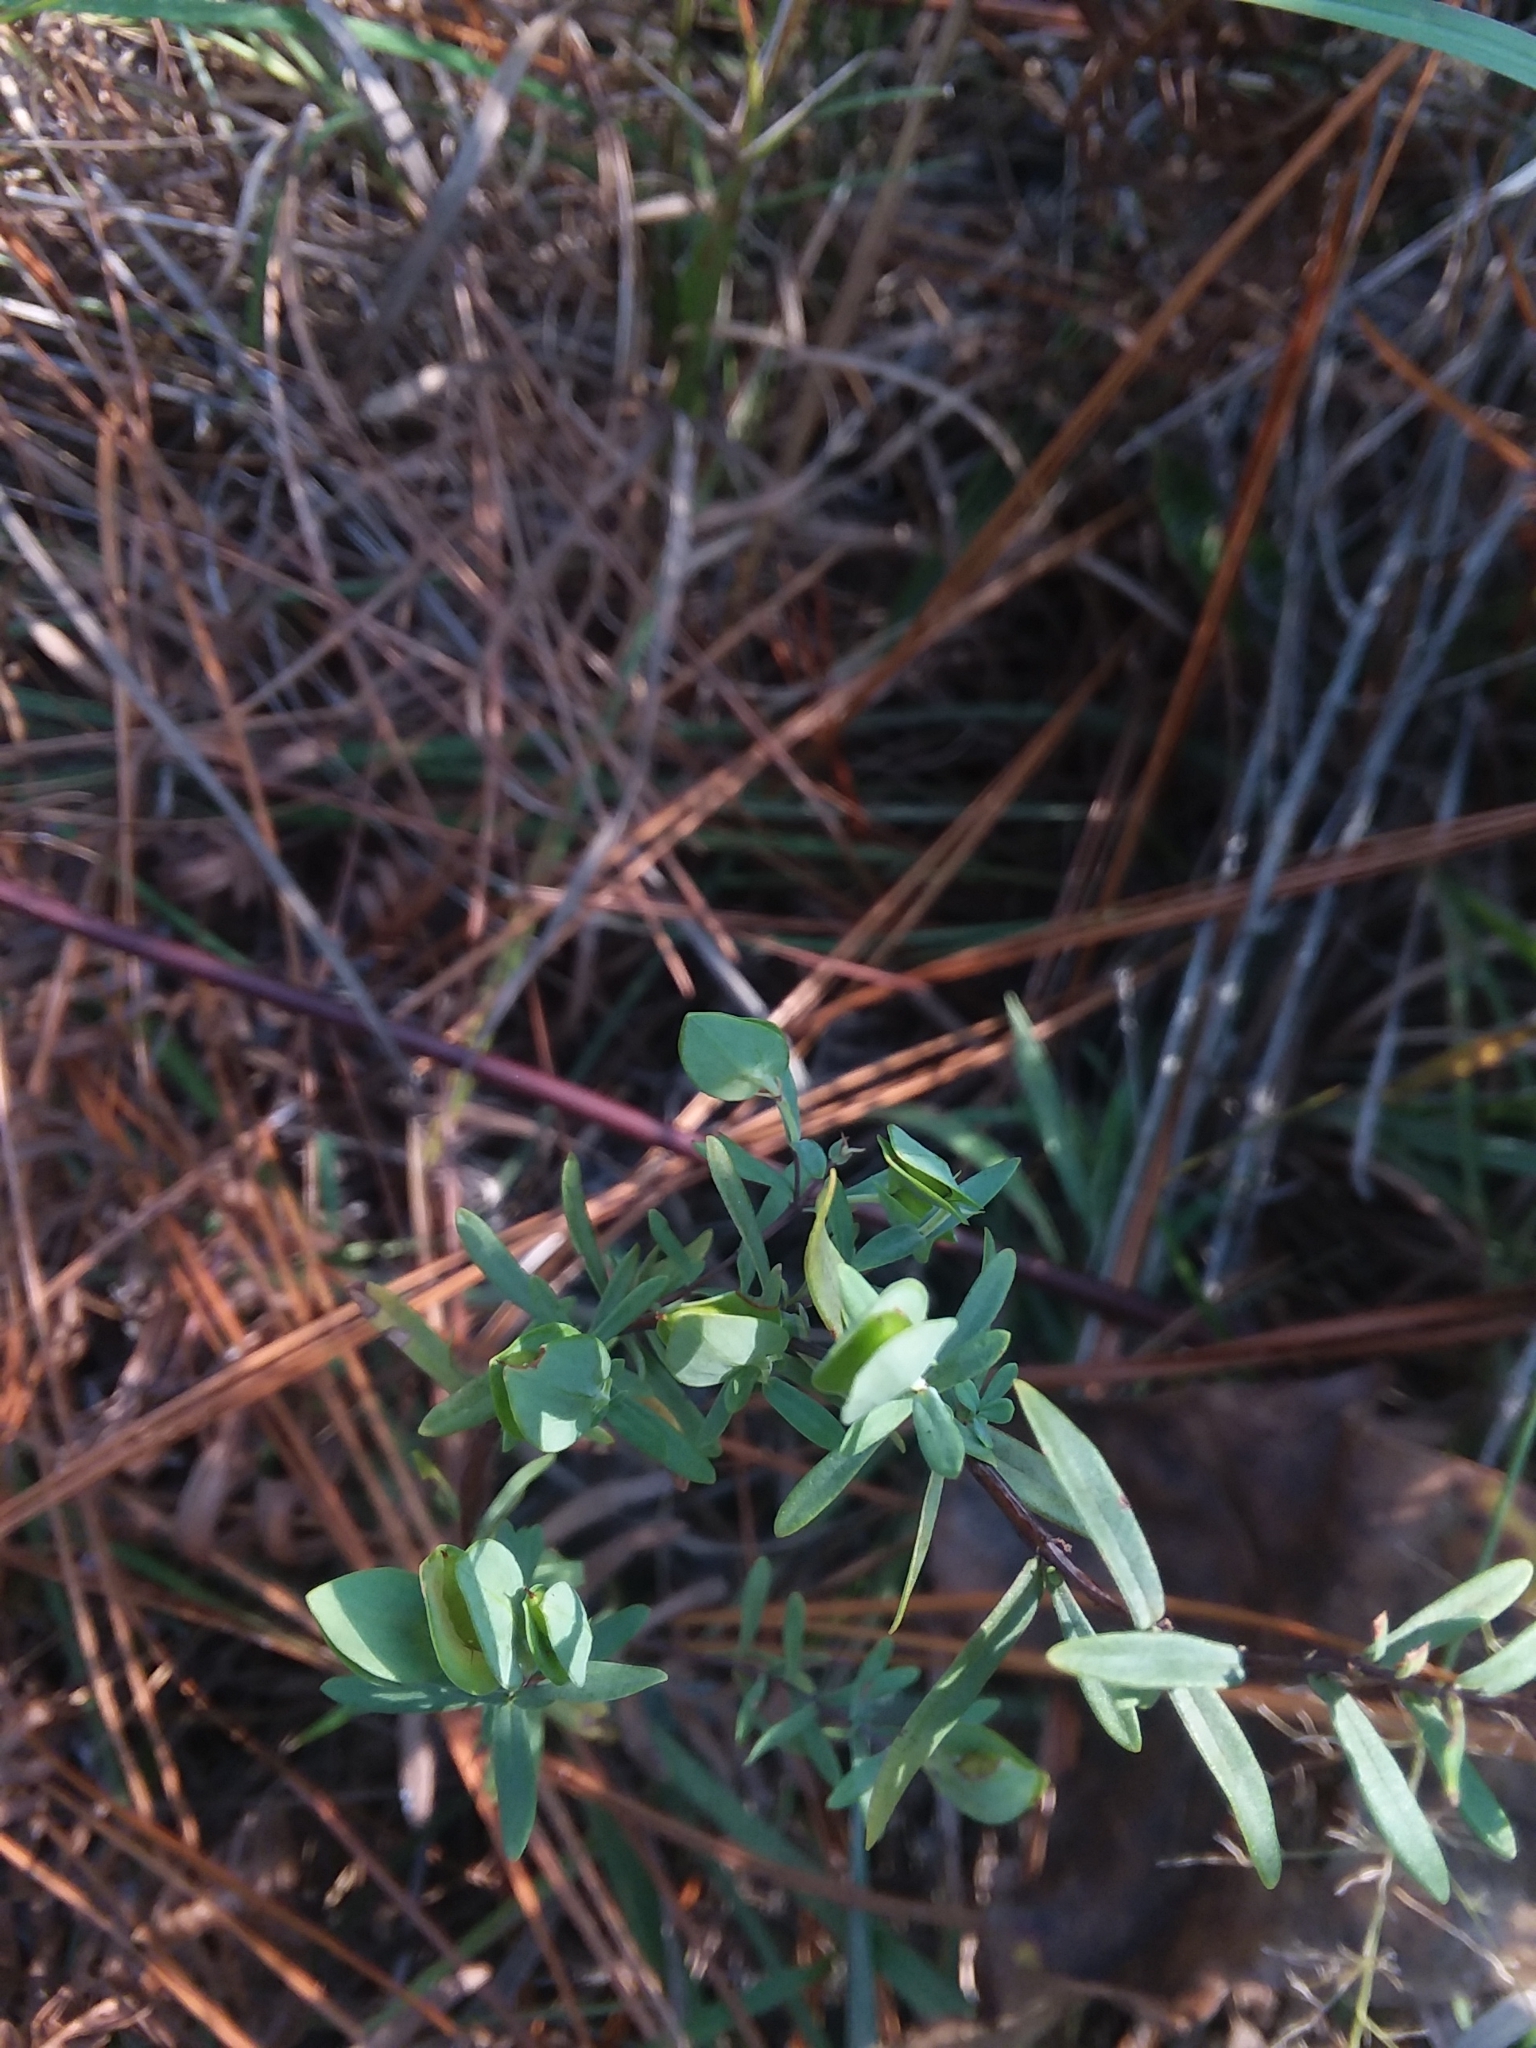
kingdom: Plantae
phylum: Tracheophyta
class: Magnoliopsida
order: Malpighiales
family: Hypericaceae
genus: Hypericum
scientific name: Hypericum hypericoides
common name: St. andrew's cross
